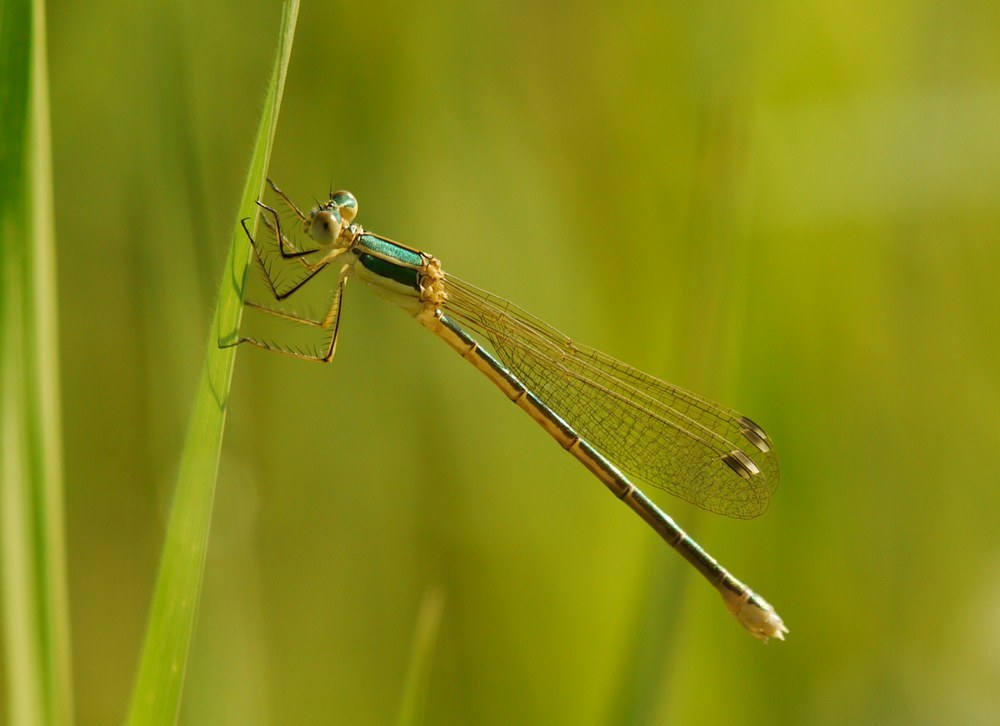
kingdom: Animalia
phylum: Arthropoda
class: Insecta
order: Odonata
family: Lestidae
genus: Lestes
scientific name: Lestes barbarus
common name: Migrant spreadwing
